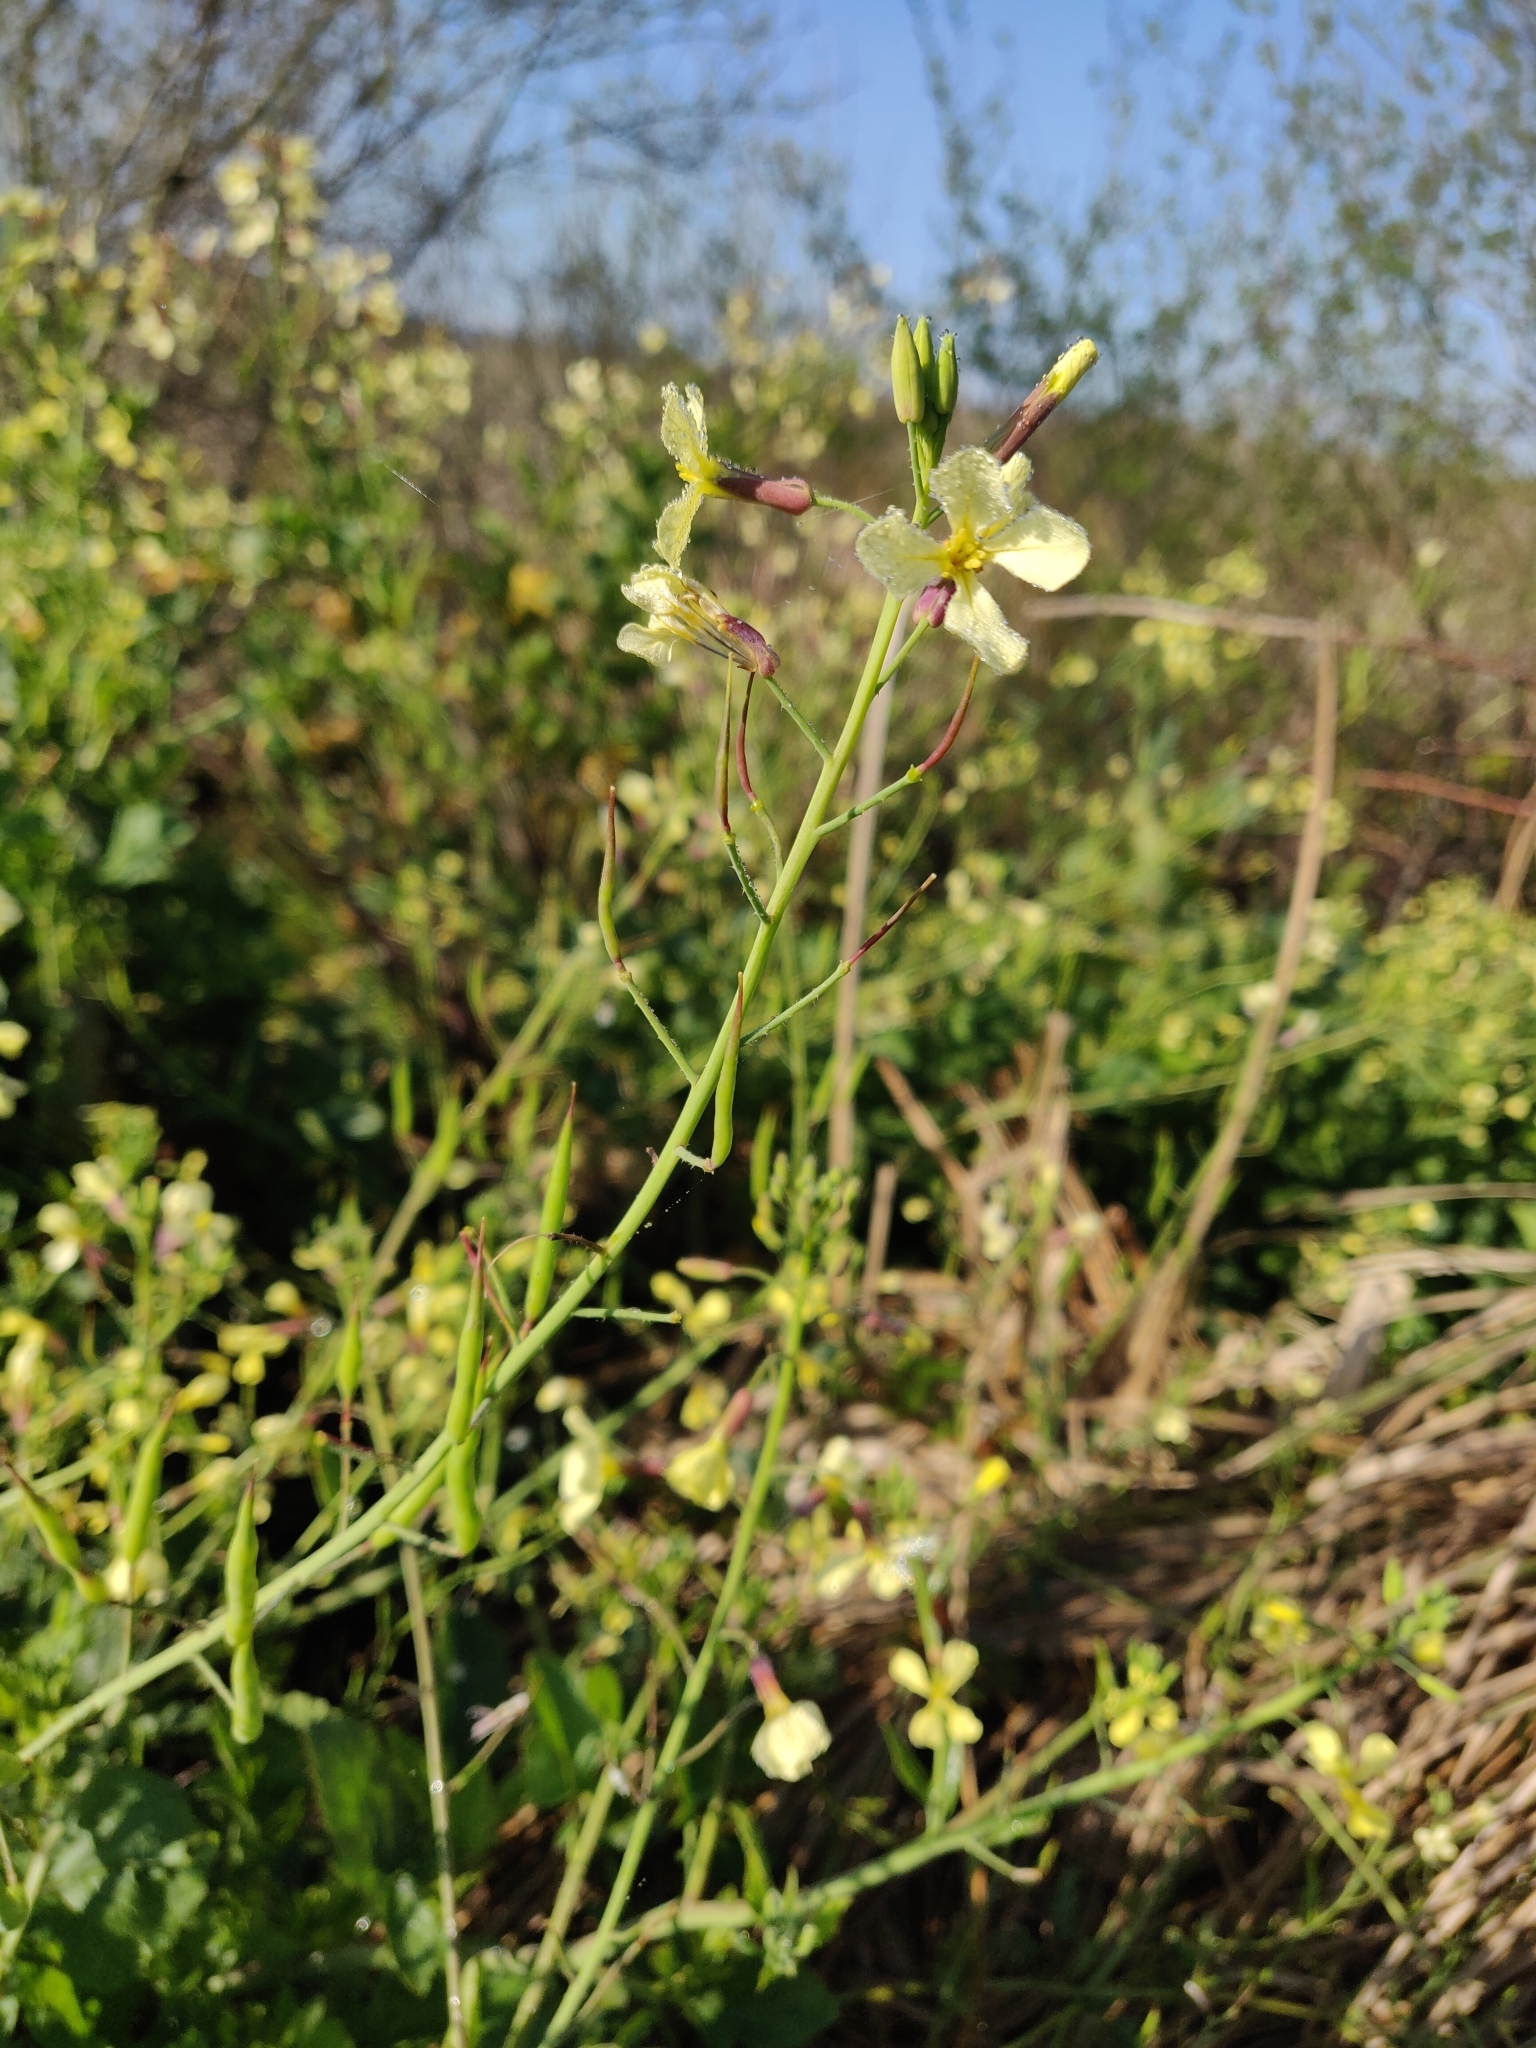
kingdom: Plantae
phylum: Tracheophyta
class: Magnoliopsida
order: Brassicales
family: Brassicaceae
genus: Raphanus
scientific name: Raphanus raphanistrum
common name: Wild radish
